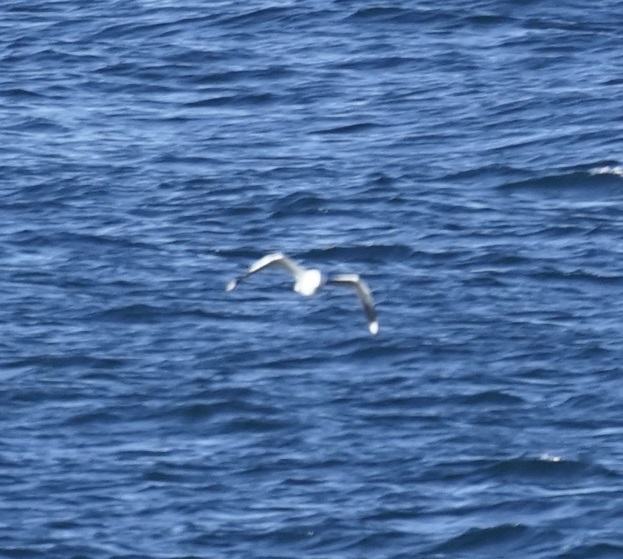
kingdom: Animalia
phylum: Chordata
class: Aves
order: Charadriiformes
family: Laridae
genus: Chroicocephalus
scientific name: Chroicocephalus novaehollandiae
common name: Silver gull
